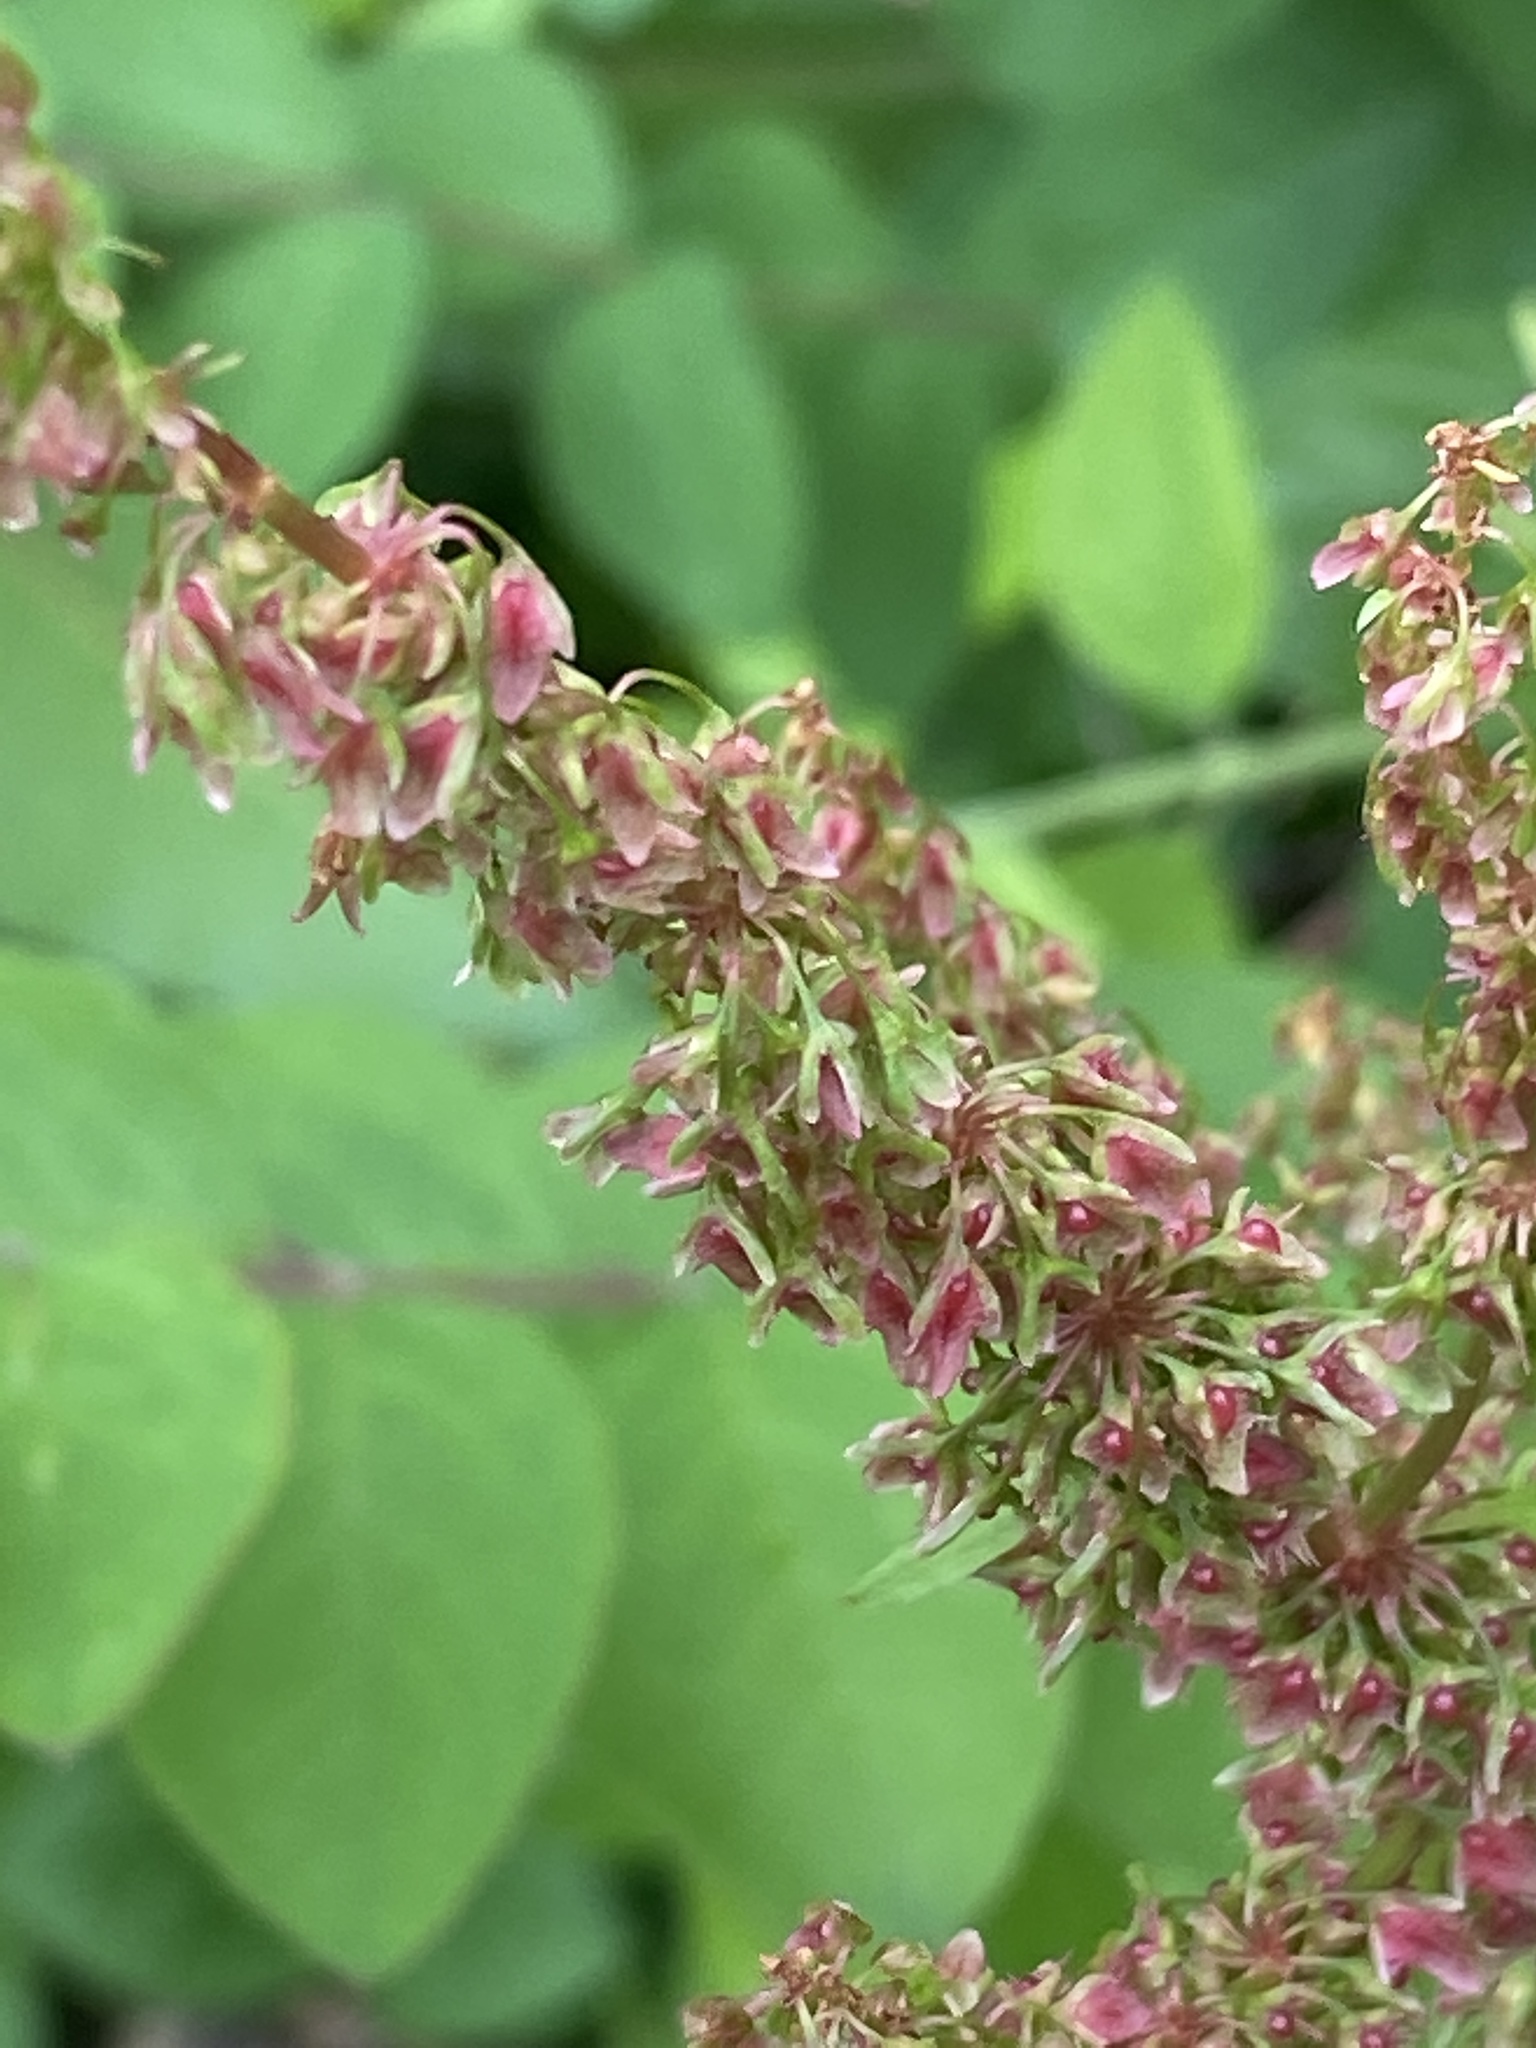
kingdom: Plantae
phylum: Tracheophyta
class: Magnoliopsida
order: Caryophyllales
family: Polygonaceae
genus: Rumex
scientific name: Rumex obtusifolius
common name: Bitter dock
